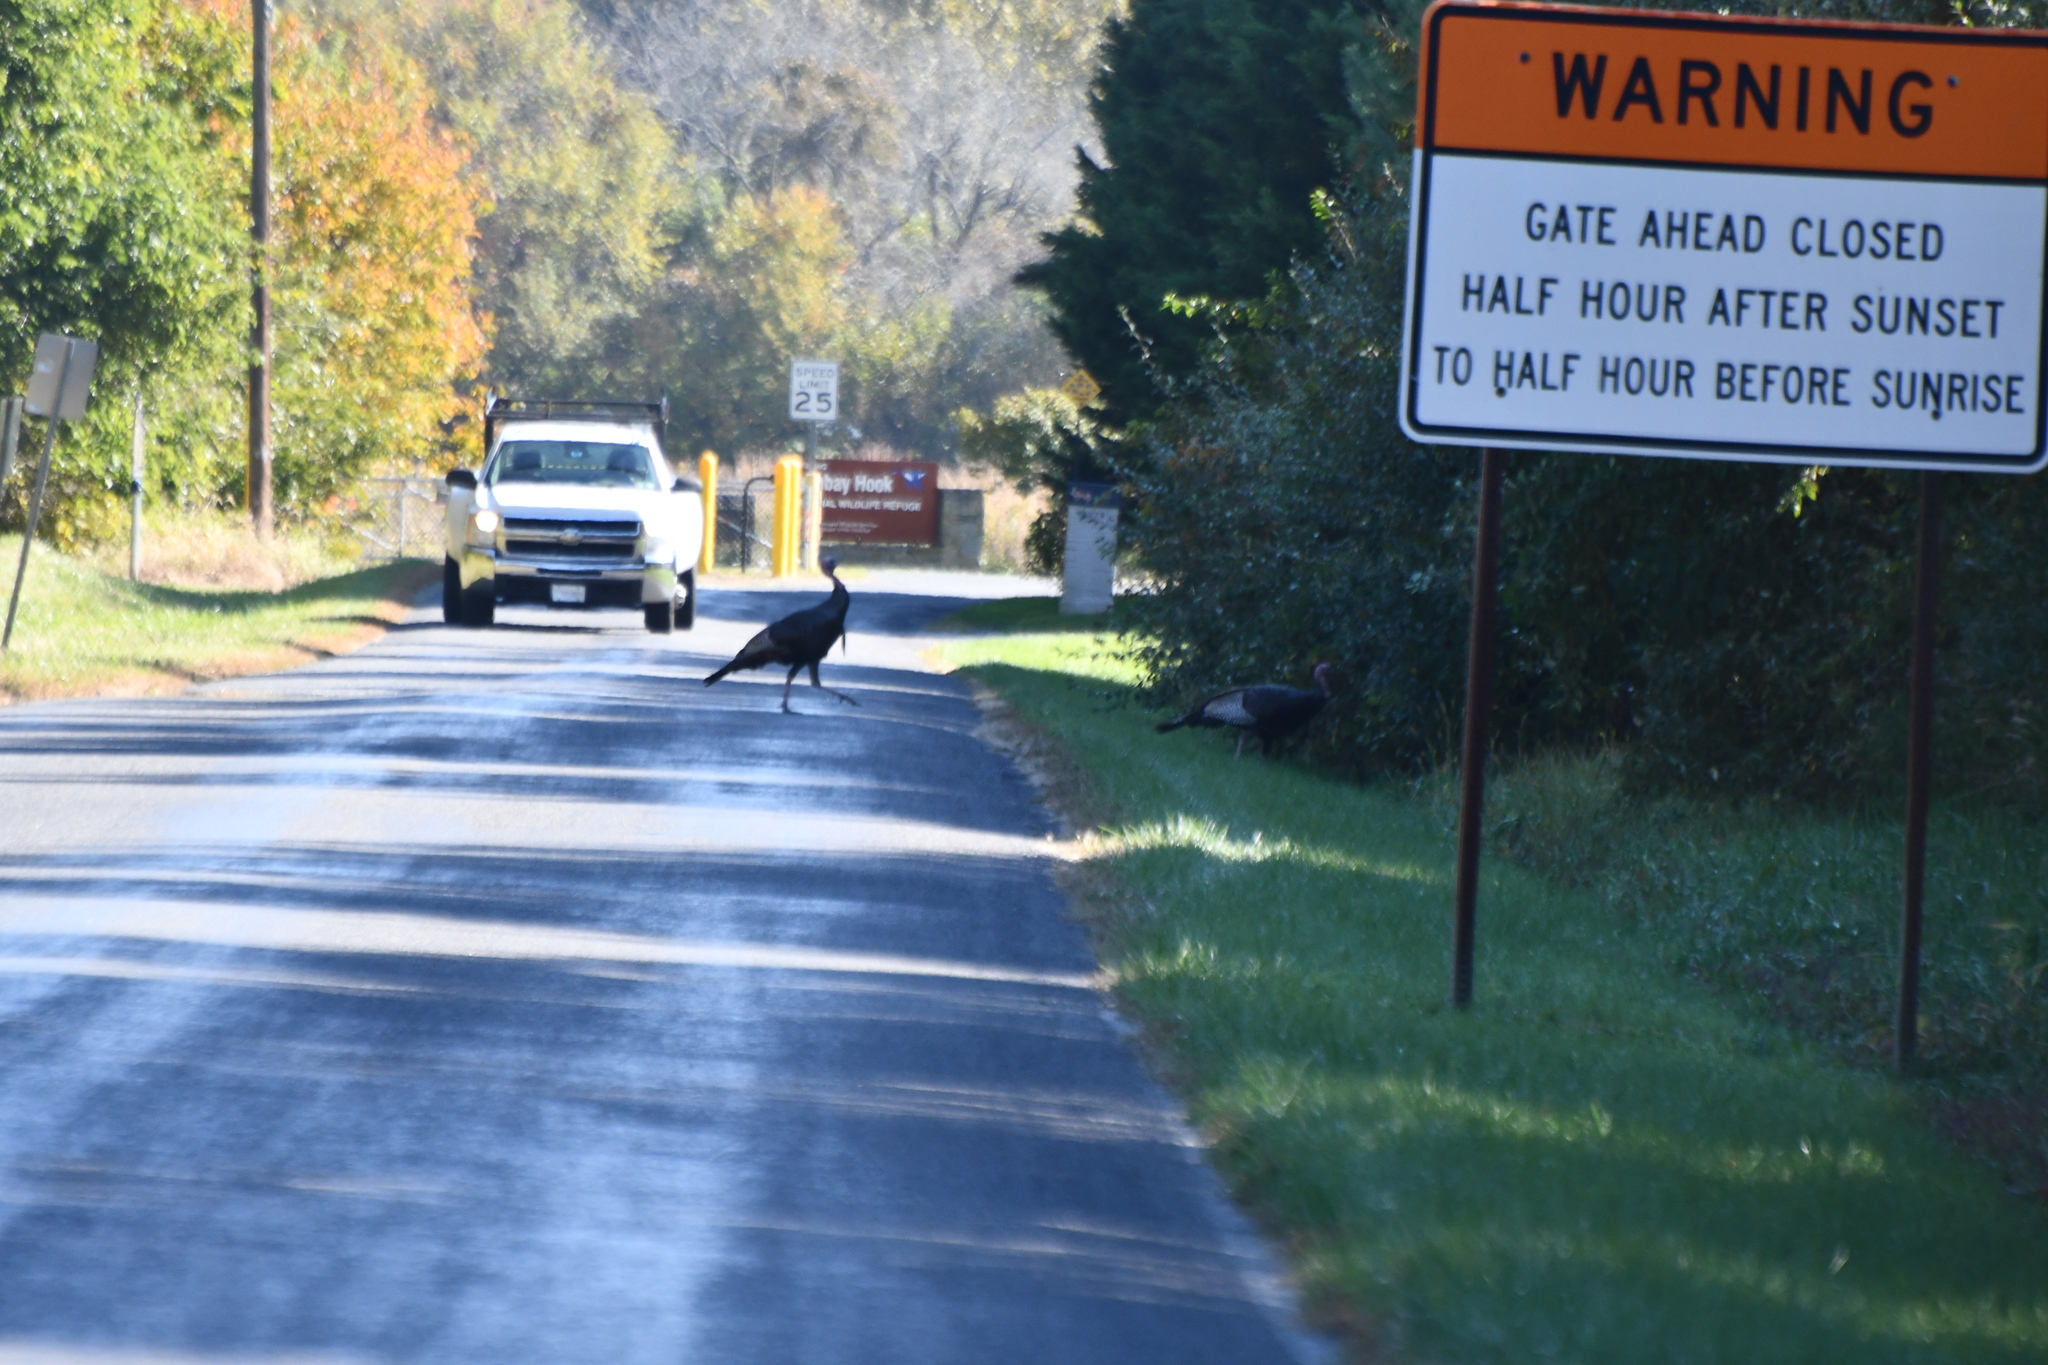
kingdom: Animalia
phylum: Chordata
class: Aves
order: Galliformes
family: Phasianidae
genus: Meleagris
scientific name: Meleagris gallopavo
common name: Wild turkey
